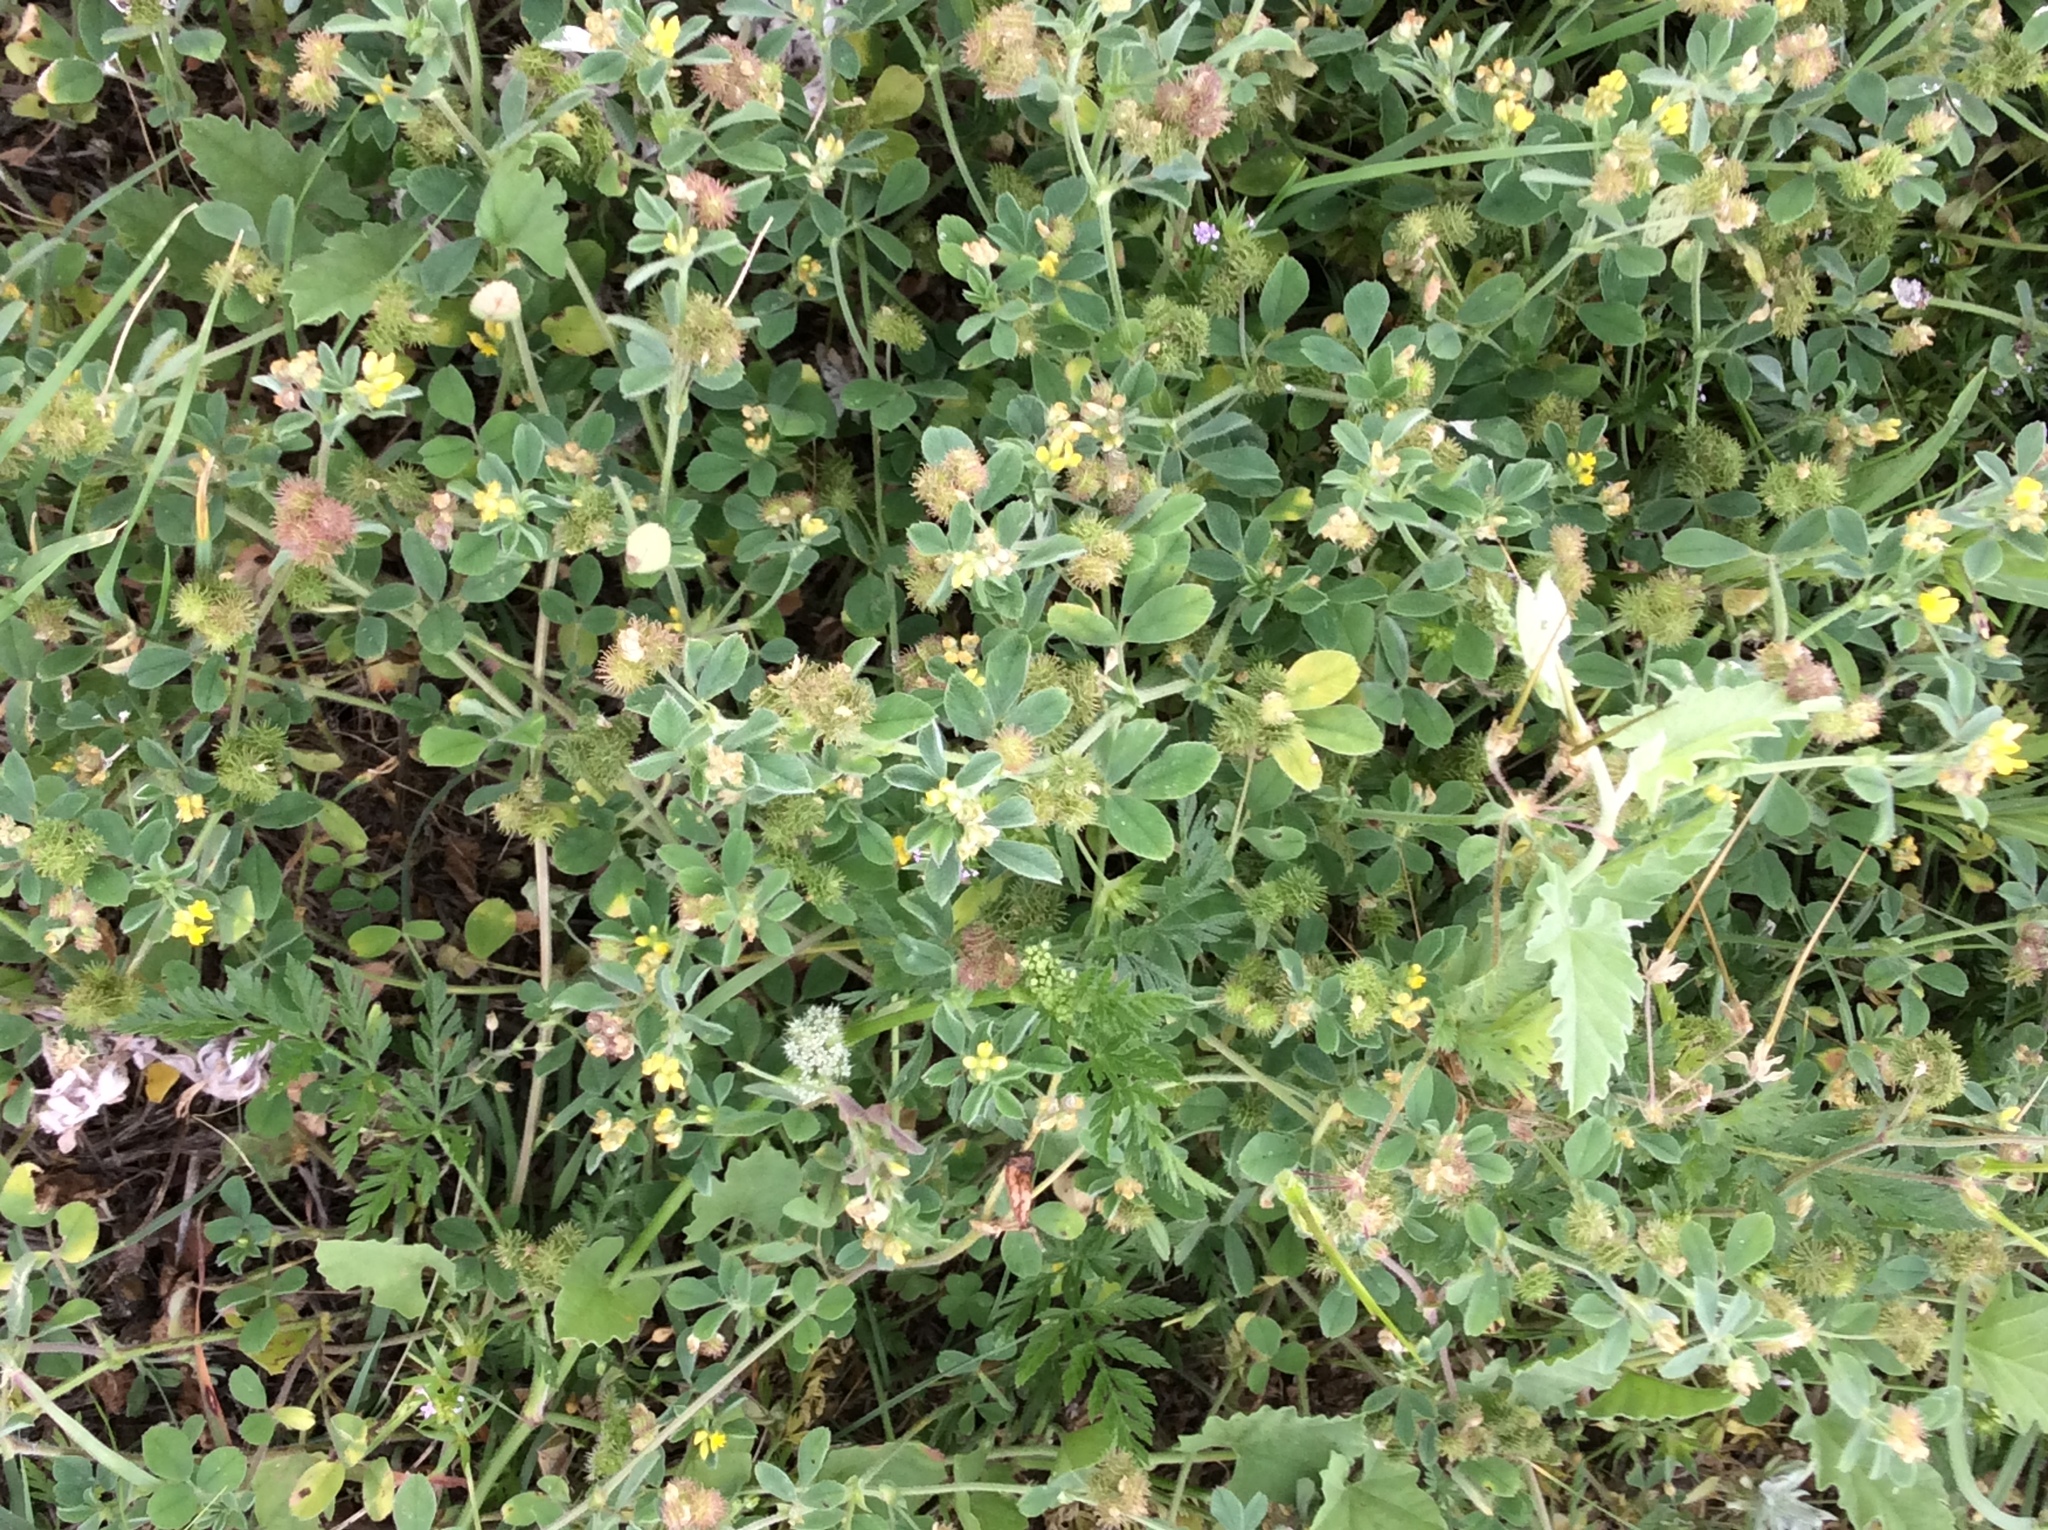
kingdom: Plantae
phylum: Tracheophyta
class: Magnoliopsida
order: Fabales
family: Fabaceae
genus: Medicago
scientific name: Medicago polymorpha
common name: Burclover
